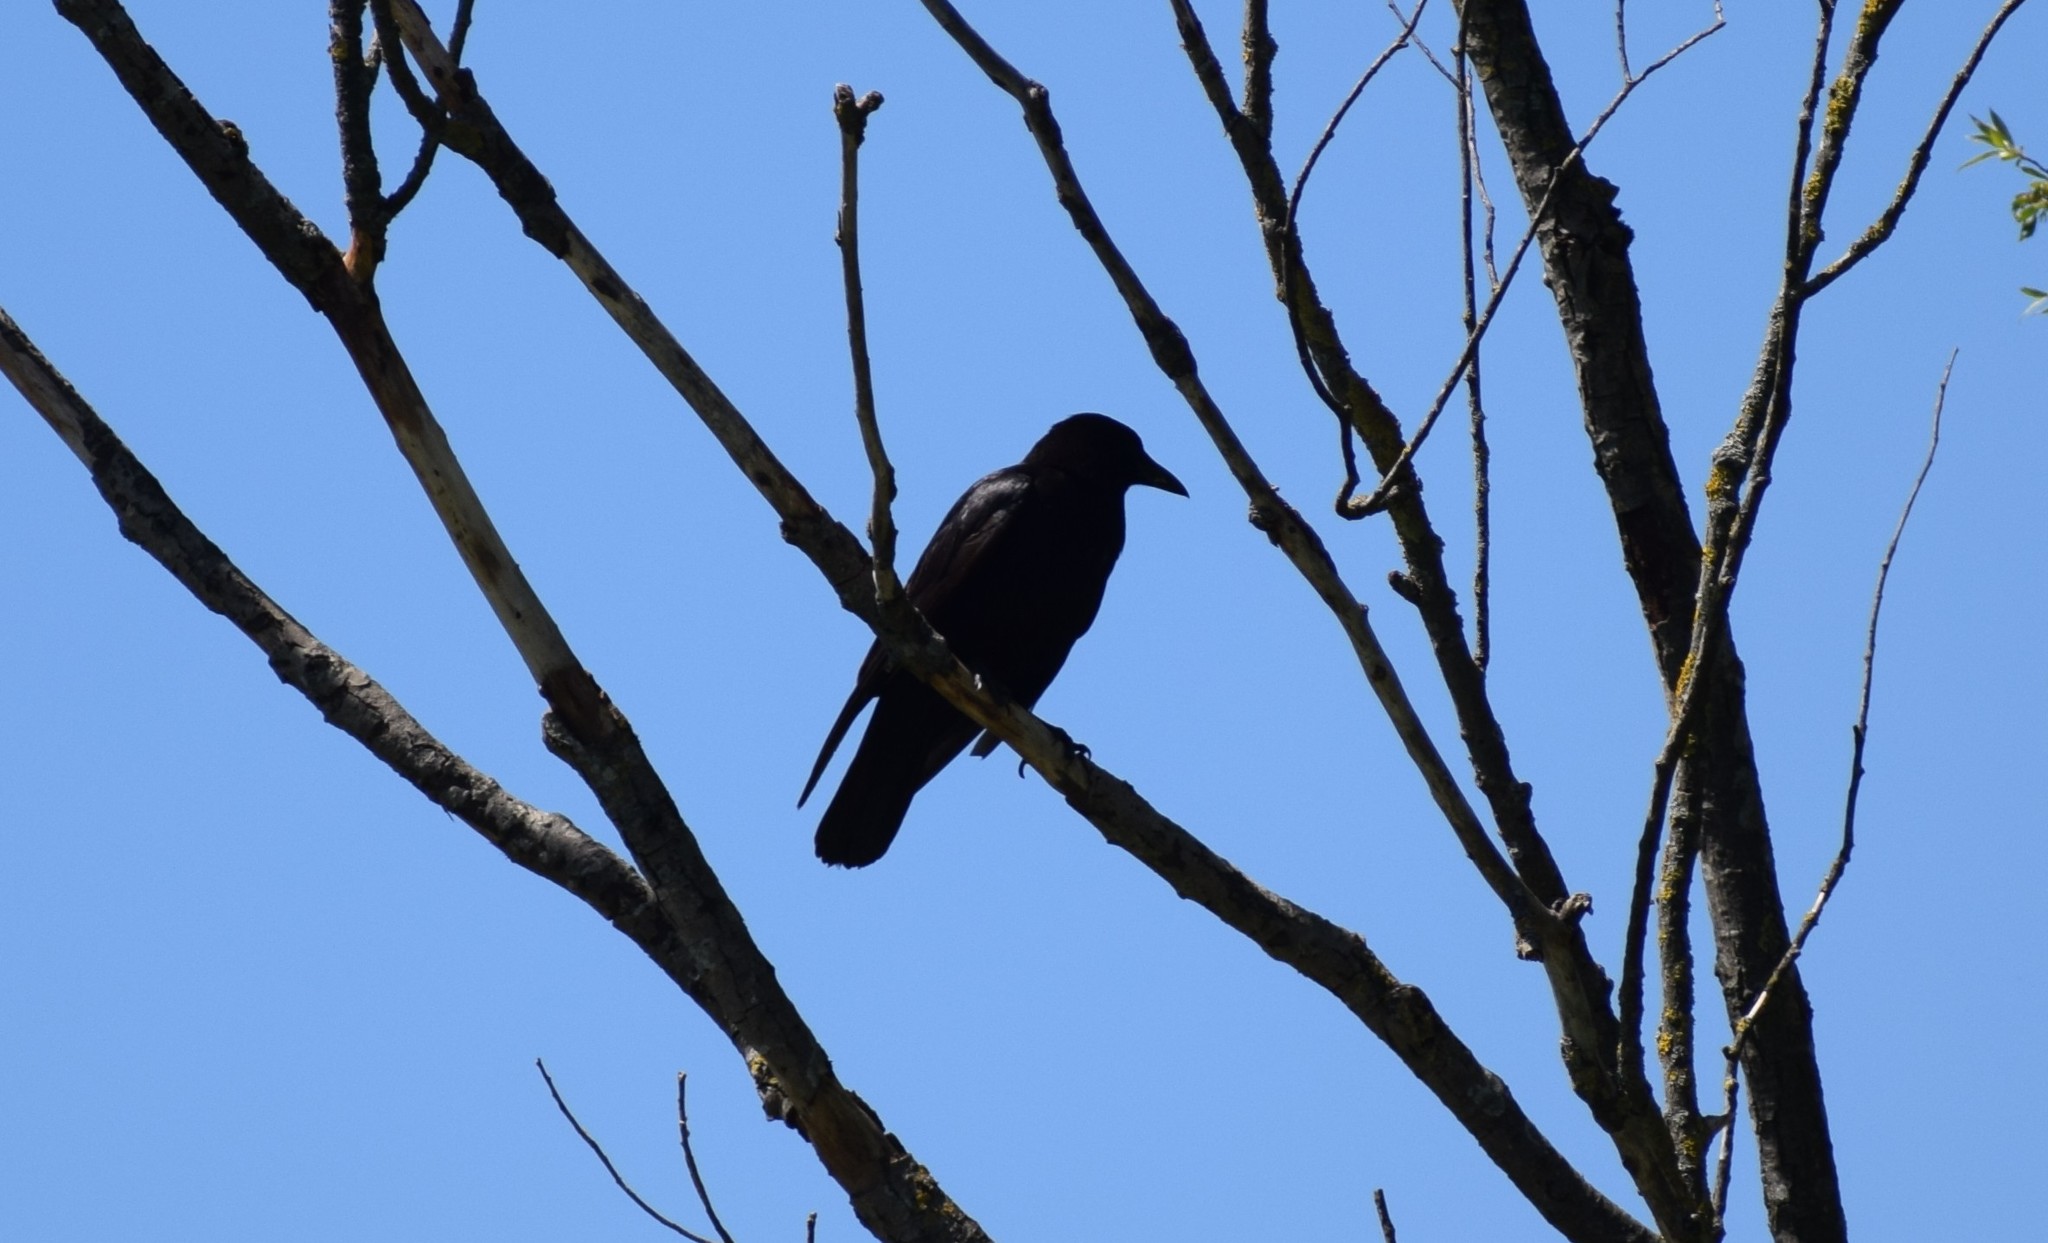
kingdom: Animalia
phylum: Chordata
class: Aves
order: Passeriformes
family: Corvidae
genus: Corvus
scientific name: Corvus corone
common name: Carrion crow
